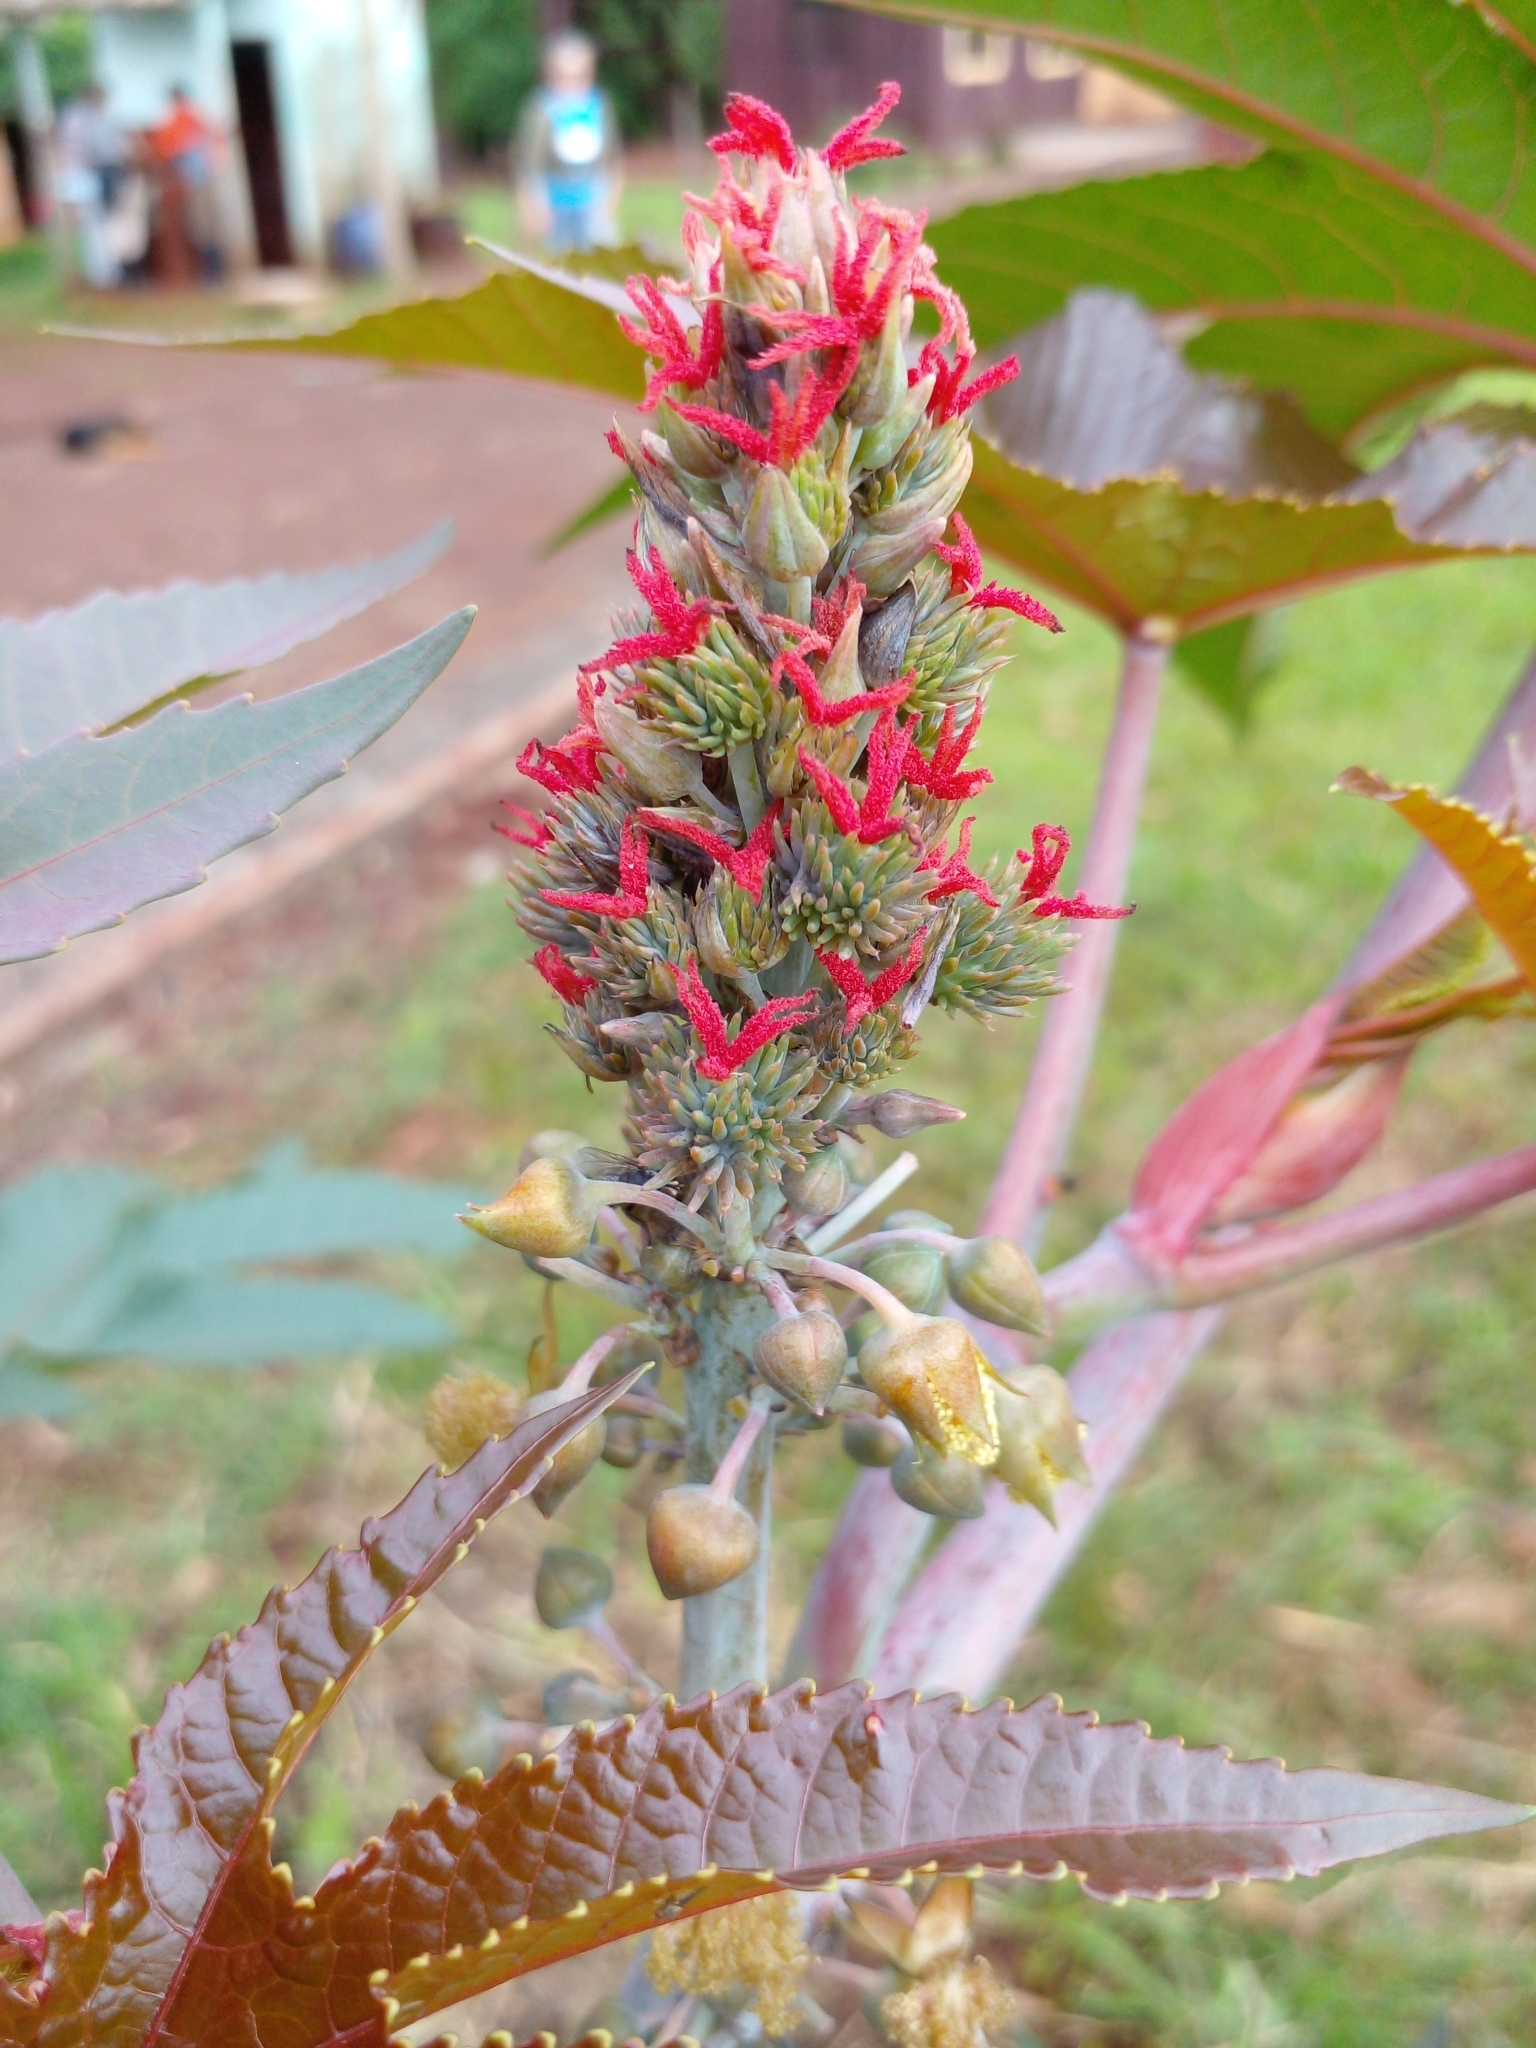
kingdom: Plantae
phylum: Tracheophyta
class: Magnoliopsida
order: Malpighiales
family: Euphorbiaceae
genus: Ricinus
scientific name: Ricinus communis
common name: Castor-oil-plant
